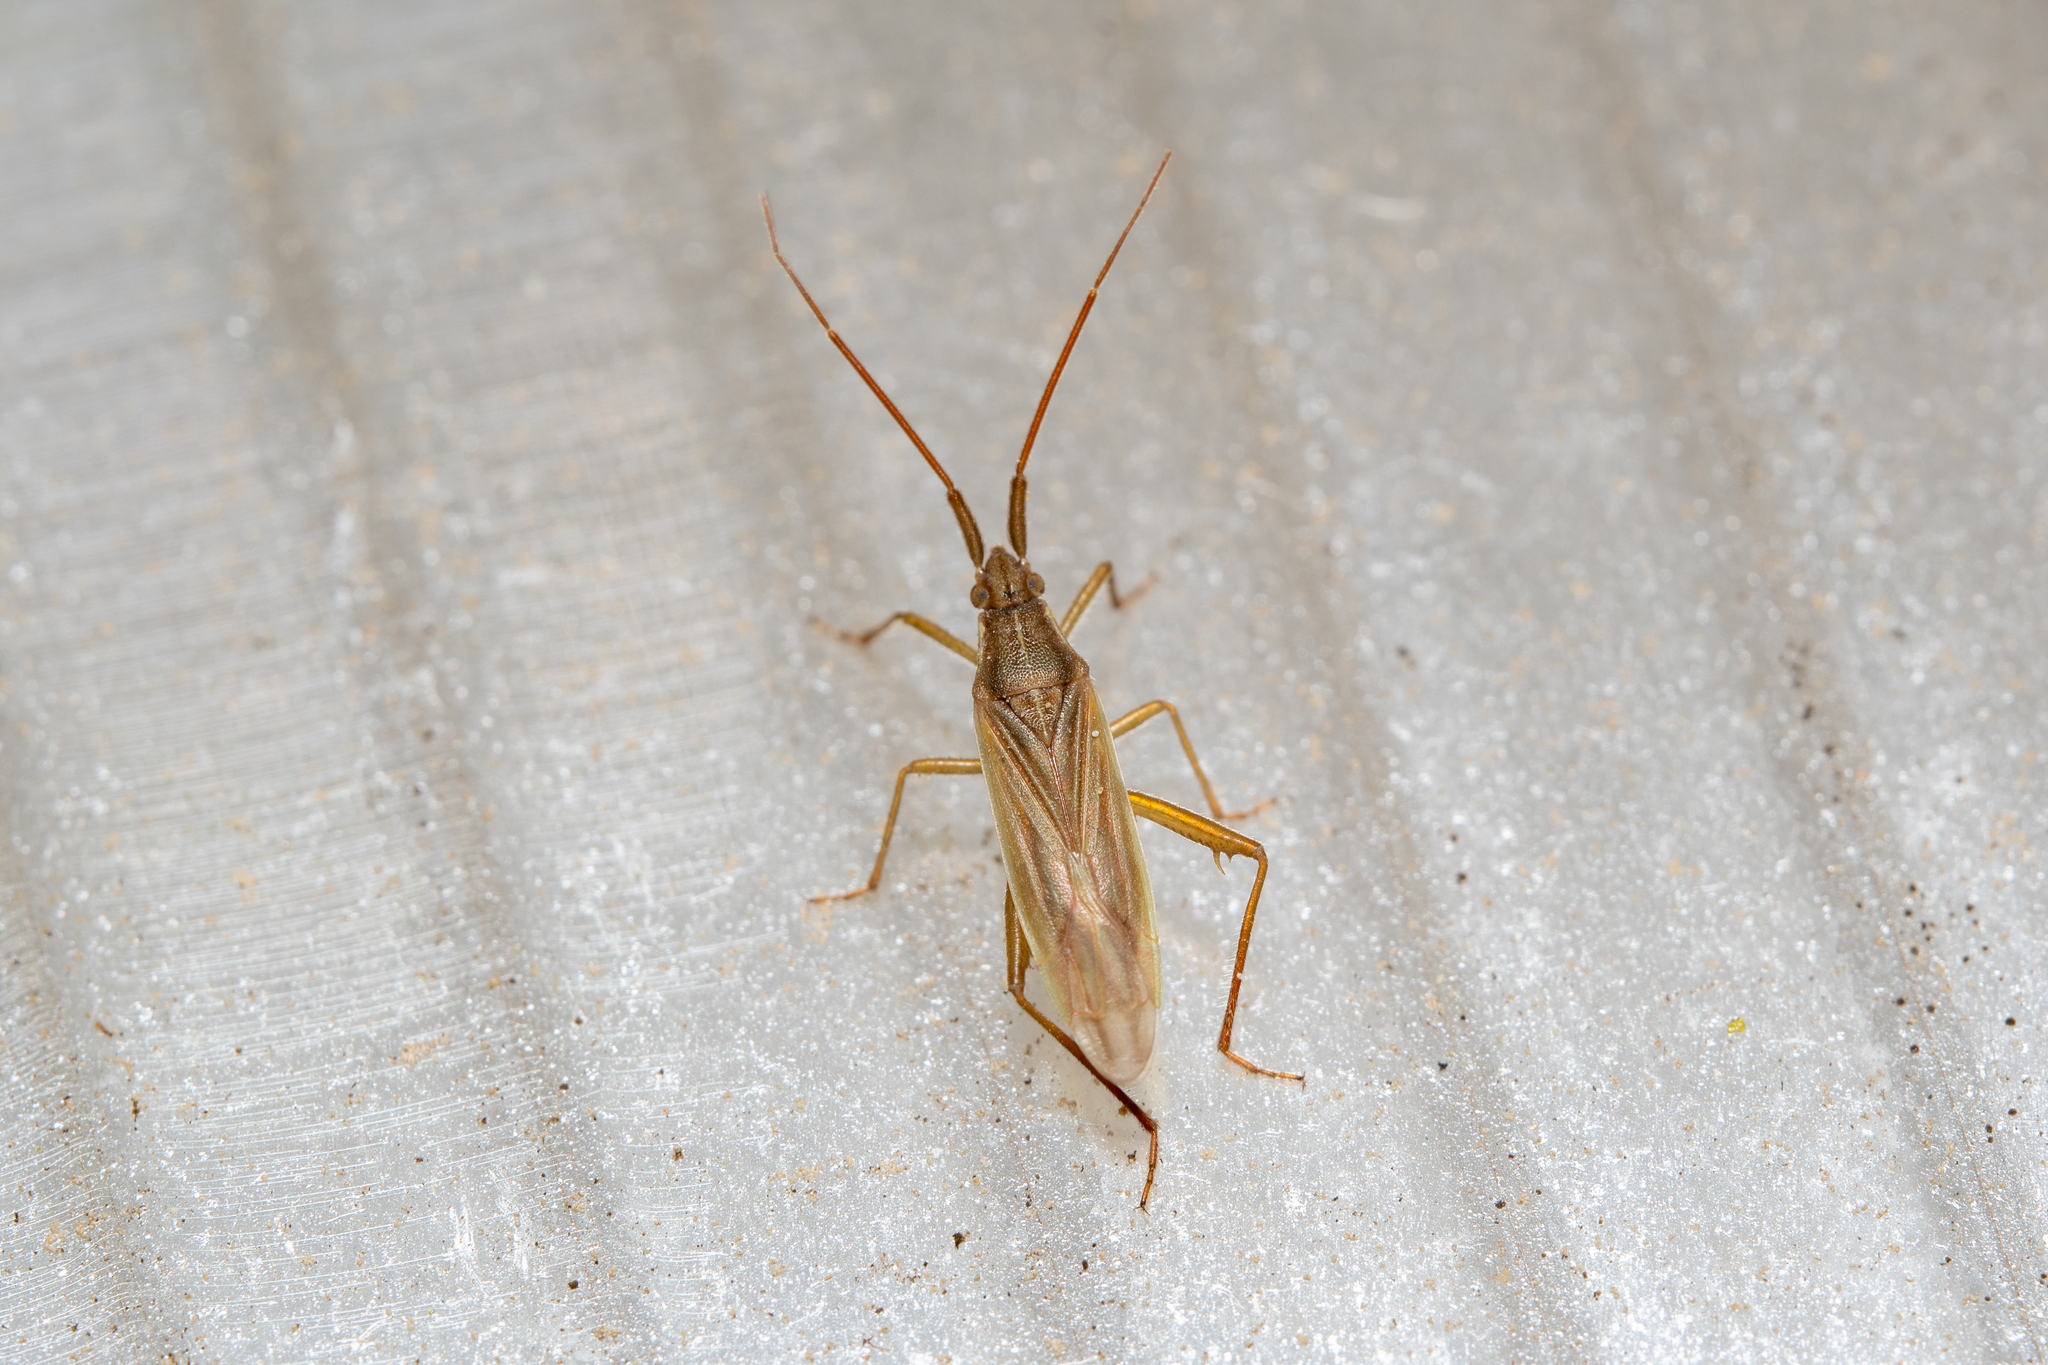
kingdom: Animalia
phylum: Arthropoda
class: Insecta
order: Hemiptera
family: Miridae
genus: Stenodema
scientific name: Stenodema calcarata
